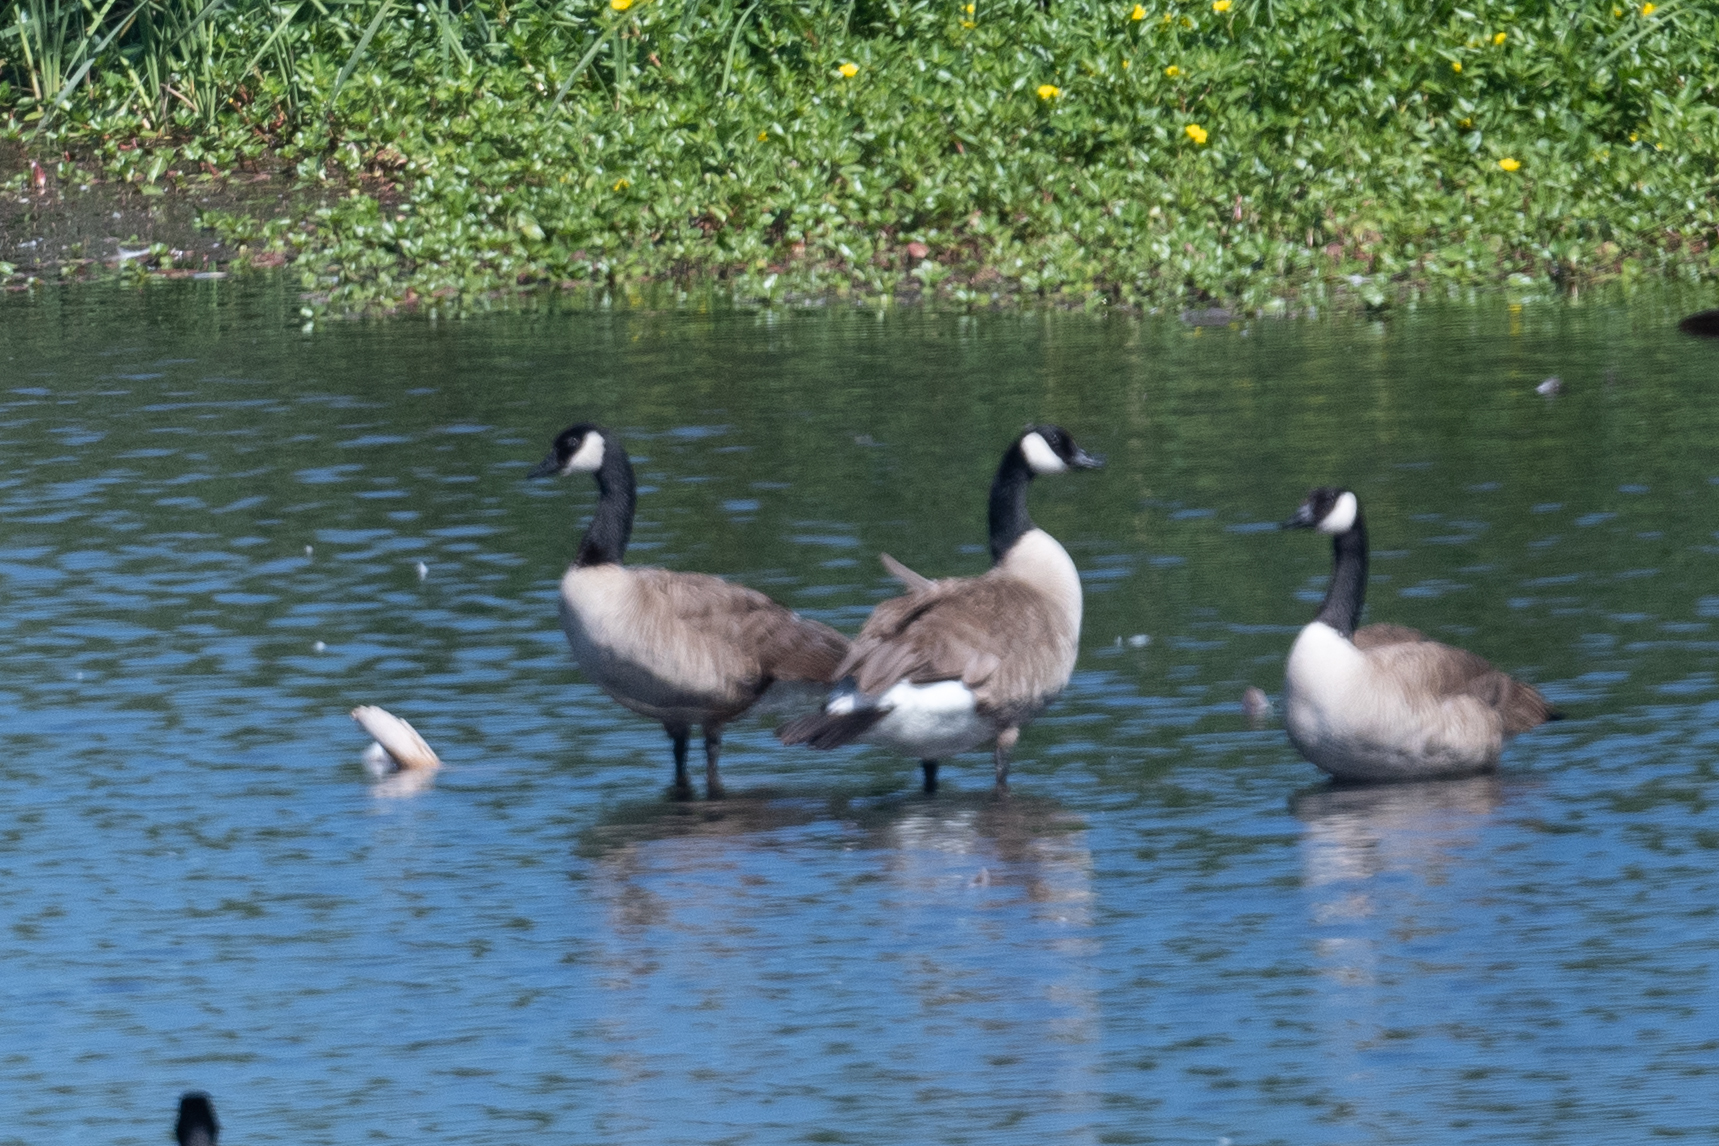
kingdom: Animalia
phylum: Chordata
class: Aves
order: Anseriformes
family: Anatidae
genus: Branta
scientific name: Branta canadensis
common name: Canada goose
